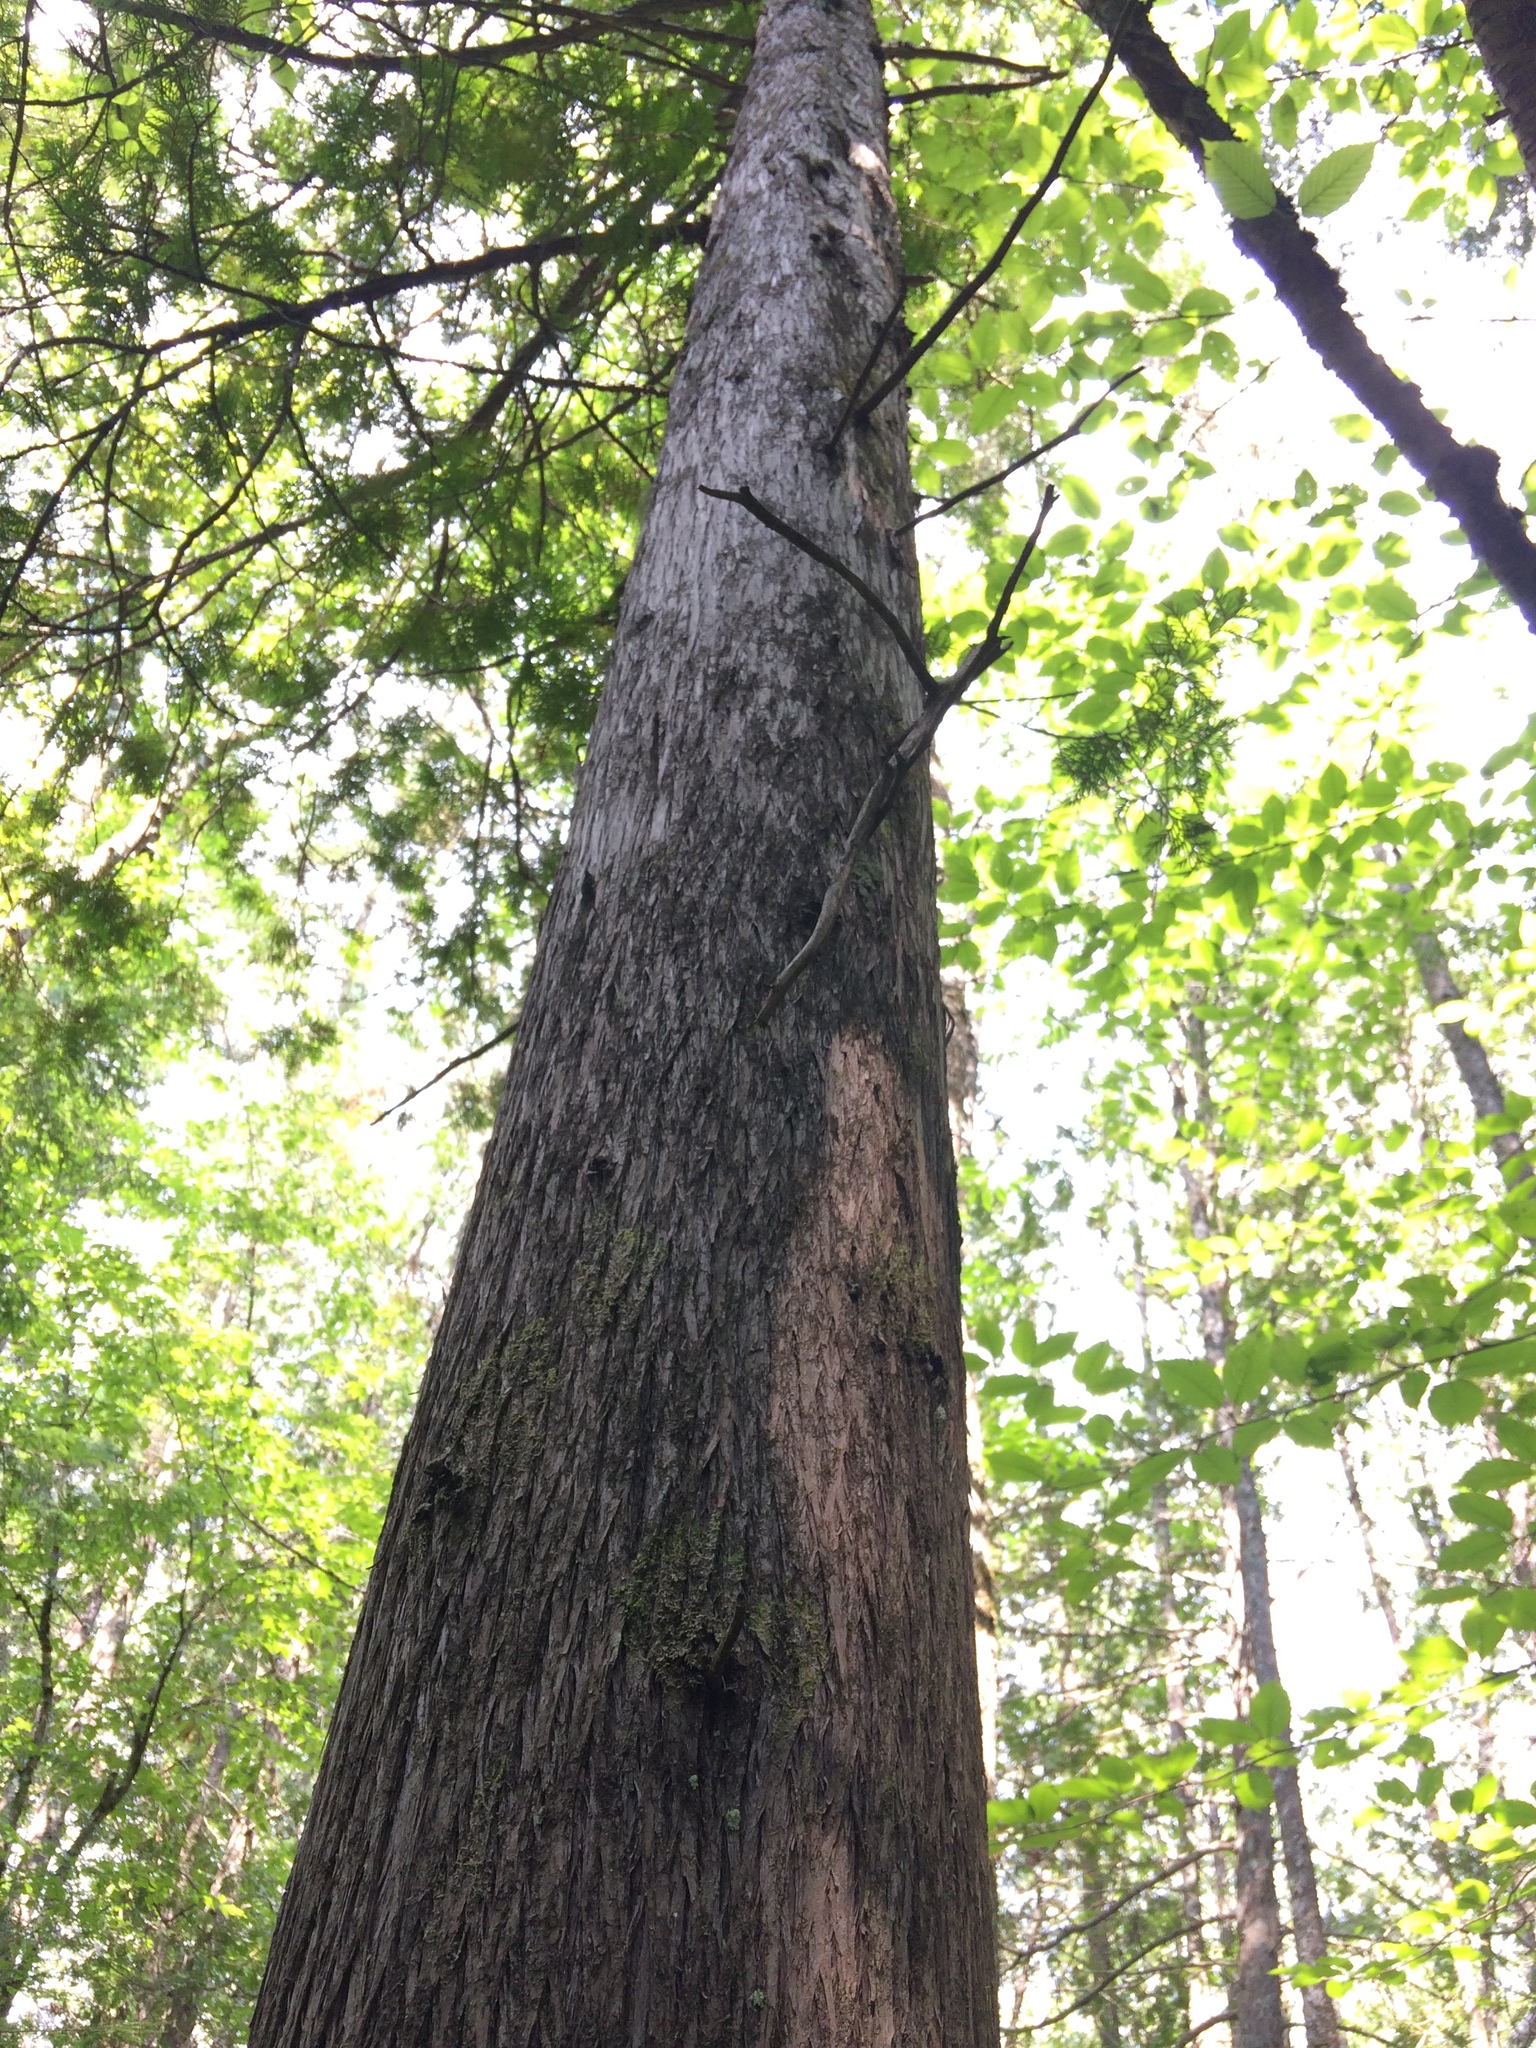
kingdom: Plantae
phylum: Tracheophyta
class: Pinopsida
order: Pinales
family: Cupressaceae
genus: Thuja
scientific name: Thuja occidentalis
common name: Northern white-cedar
